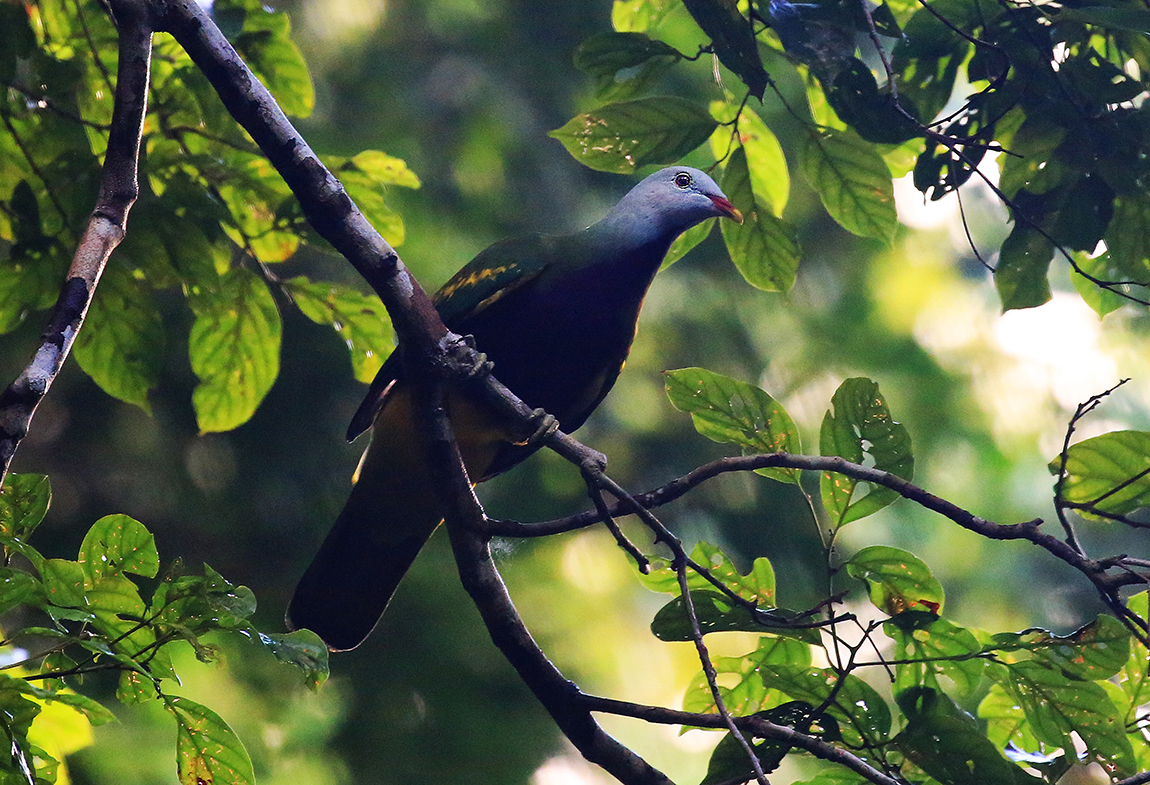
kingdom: Animalia
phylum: Chordata
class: Aves
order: Columbiformes
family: Columbidae
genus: Ptilinopus
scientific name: Ptilinopus magnificus
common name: Wompoo fruit dove
